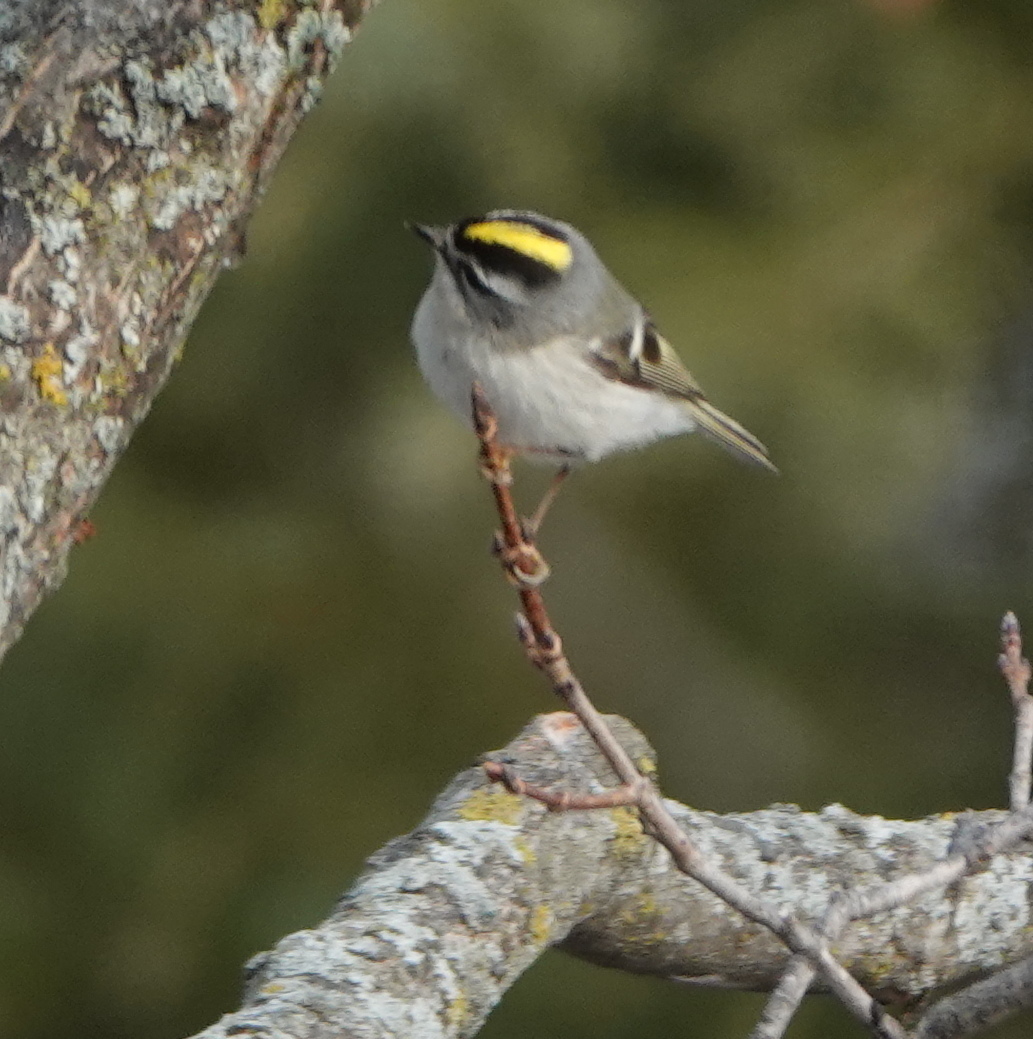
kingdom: Animalia
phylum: Chordata
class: Aves
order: Passeriformes
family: Regulidae
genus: Regulus
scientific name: Regulus satrapa
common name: Golden-crowned kinglet
